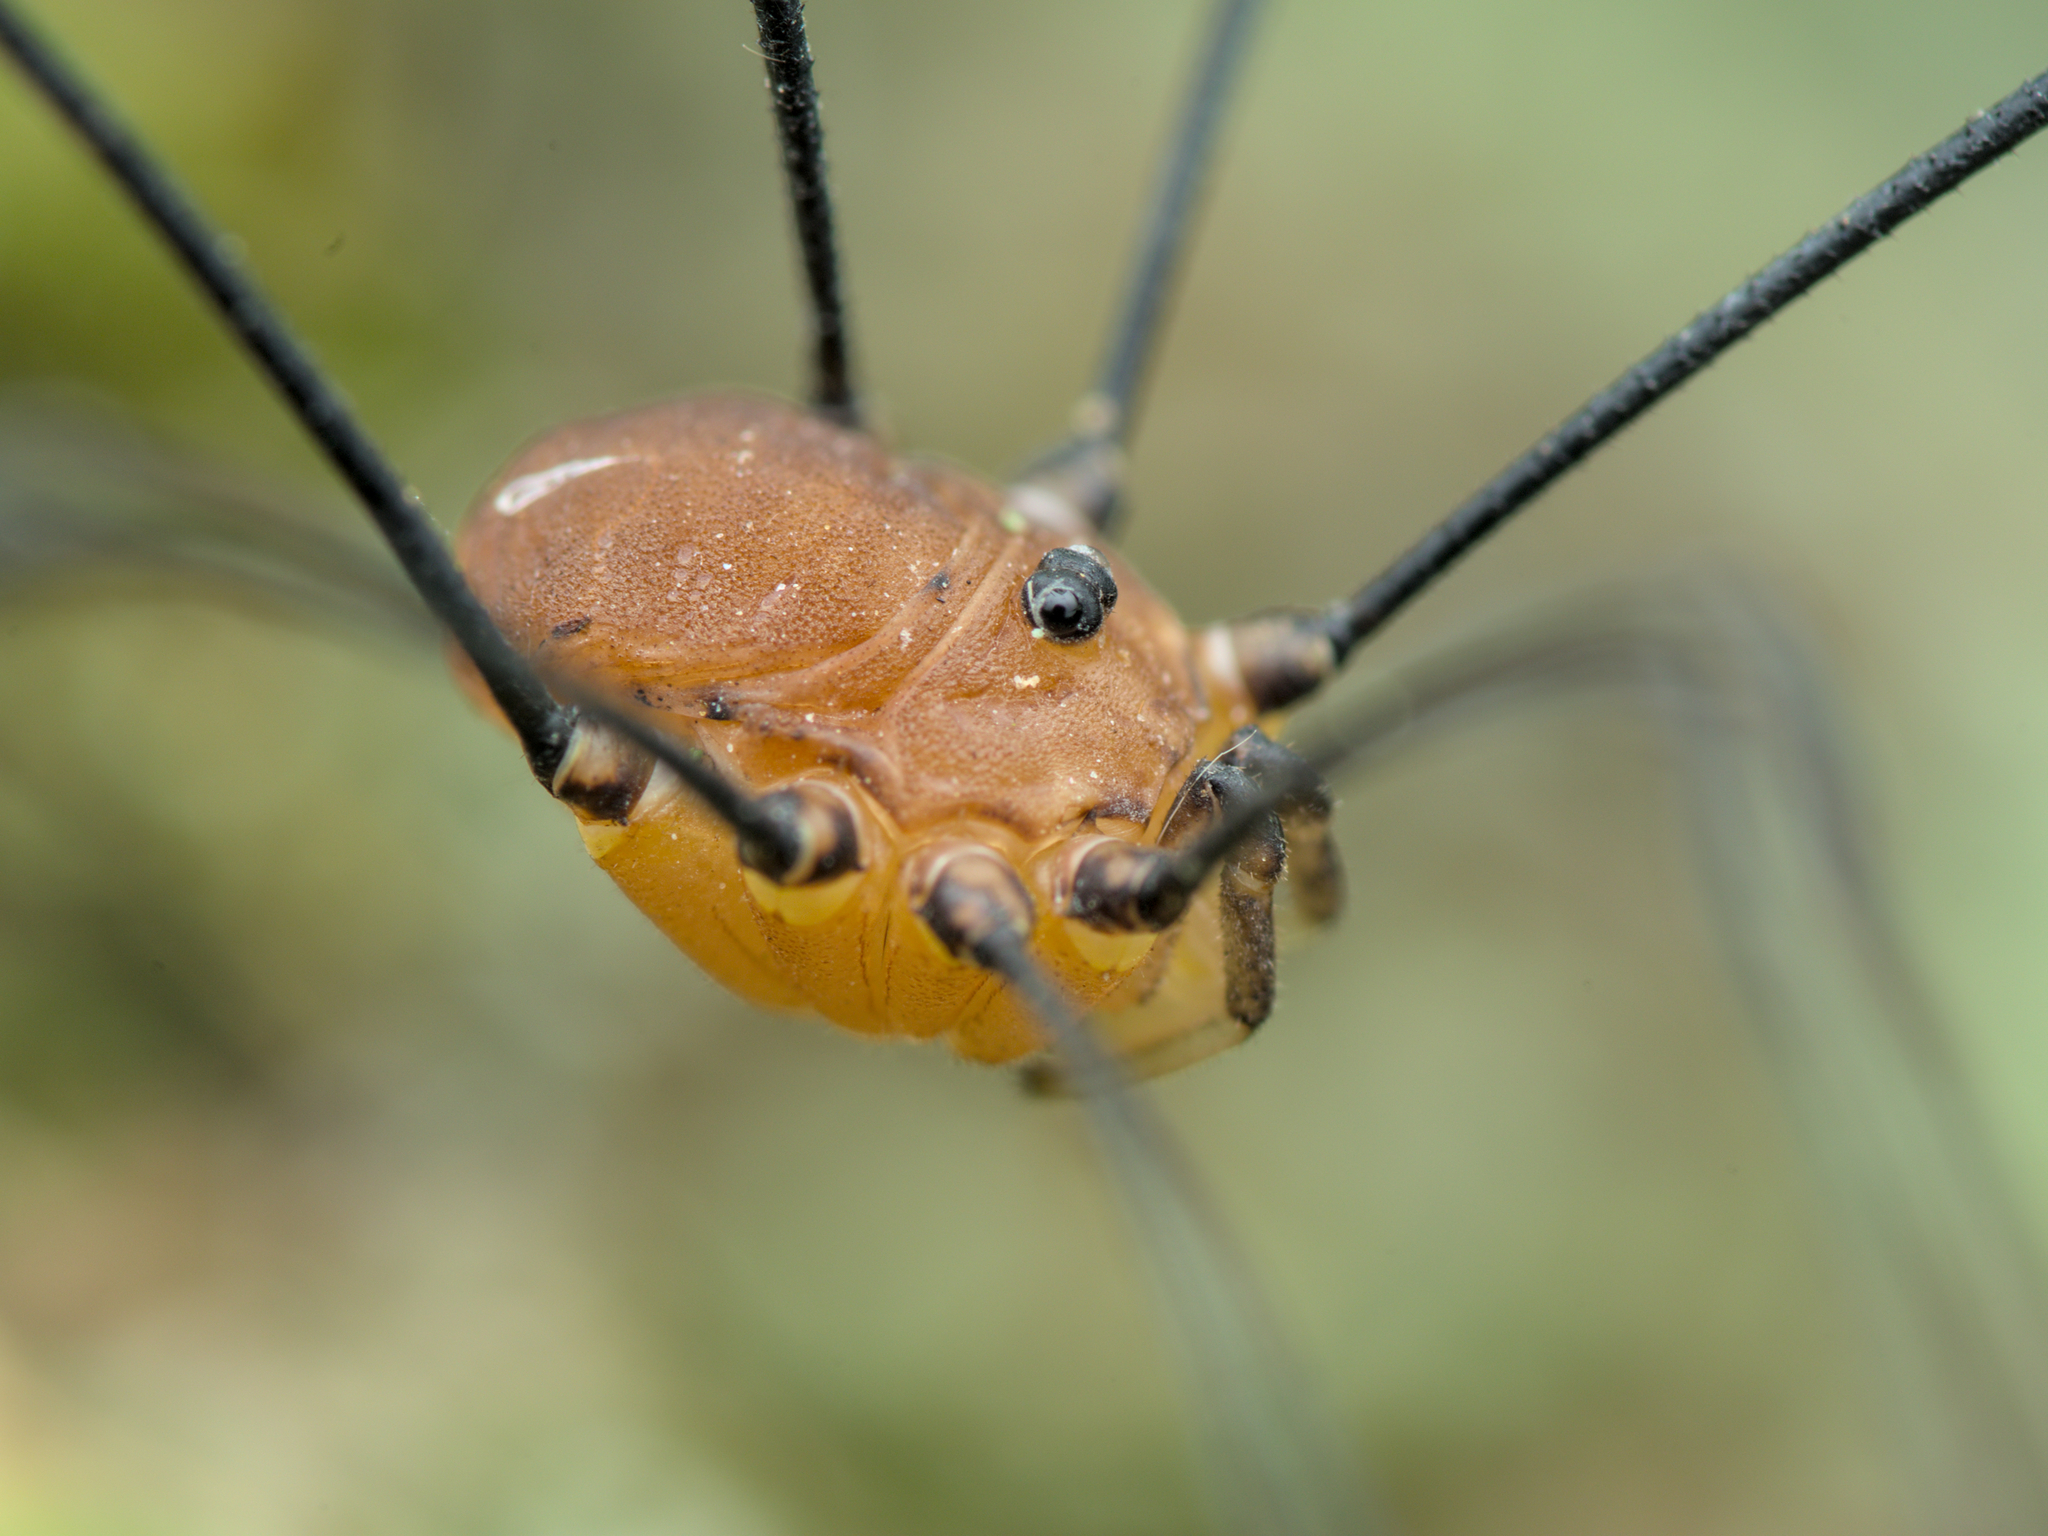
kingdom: Animalia
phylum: Arthropoda
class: Arachnida
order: Opiliones
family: Sclerosomatidae
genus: Leiobunum
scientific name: Leiobunum rotundum
